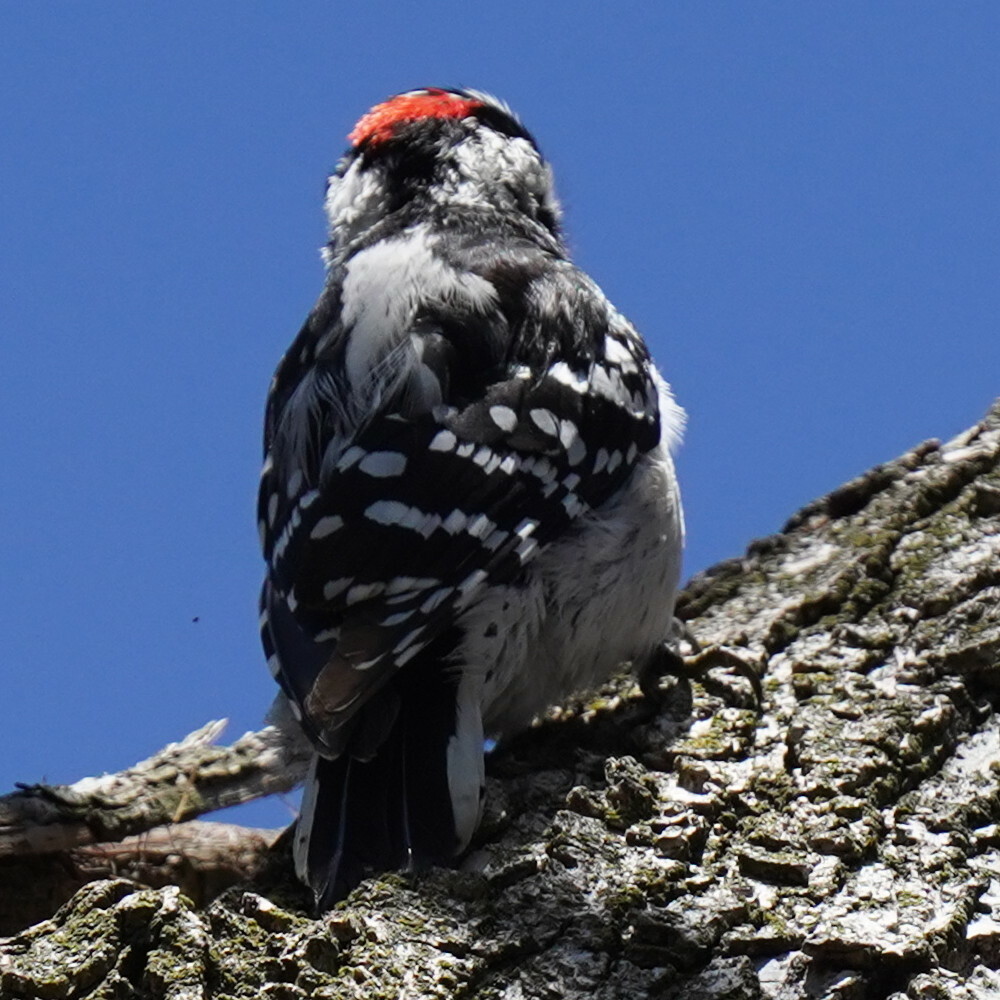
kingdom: Animalia
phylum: Chordata
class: Aves
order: Piciformes
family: Picidae
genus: Dryobates
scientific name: Dryobates pubescens
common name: Downy woodpecker
